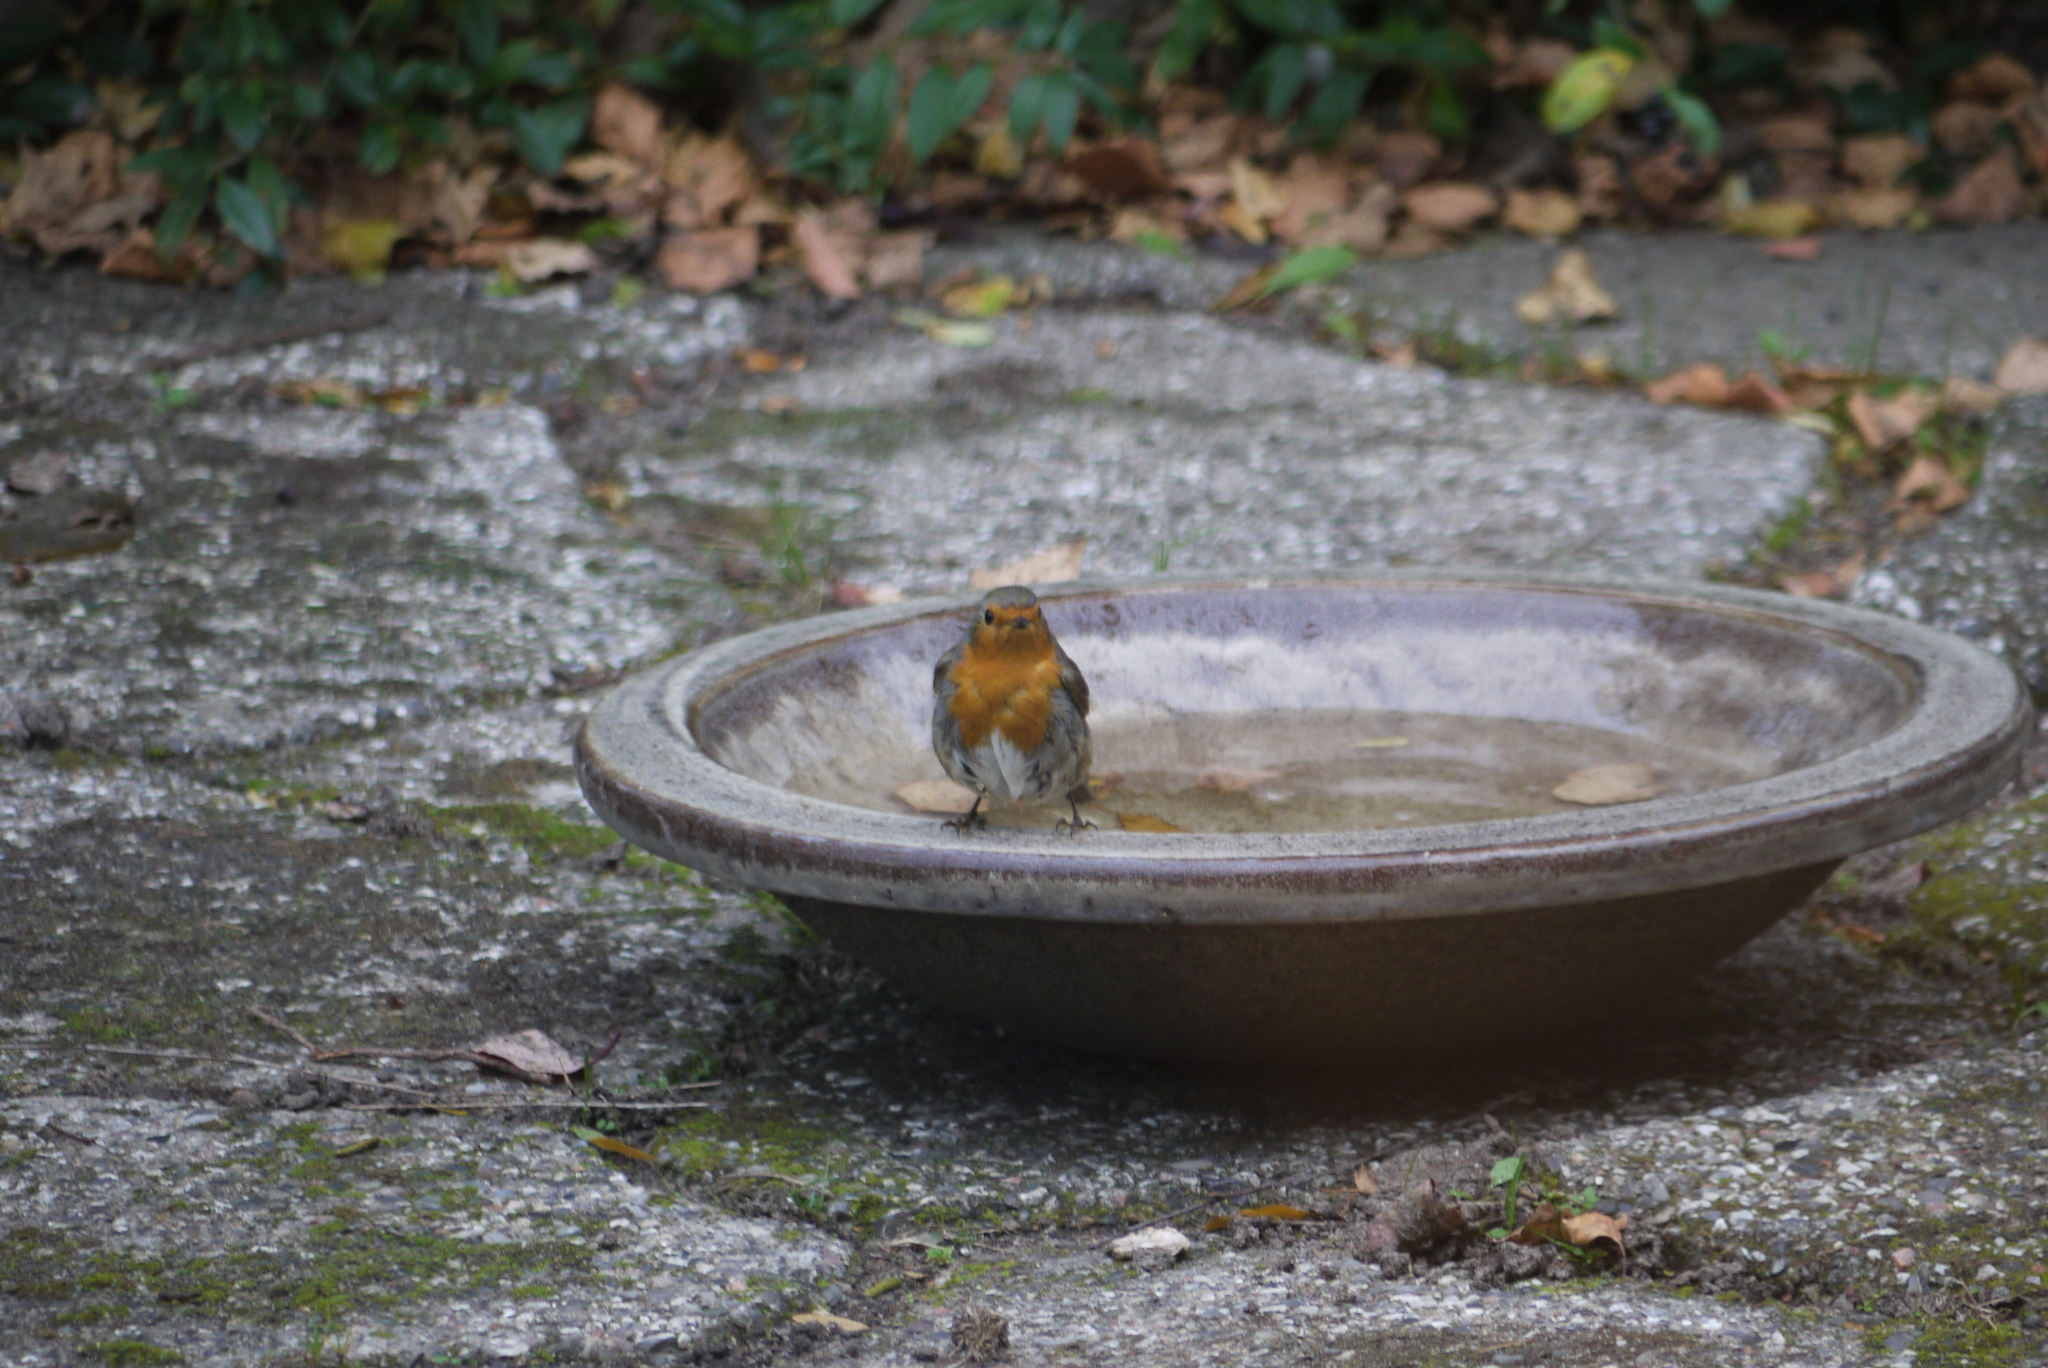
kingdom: Animalia
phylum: Chordata
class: Aves
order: Passeriformes
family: Muscicapidae
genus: Erithacus
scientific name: Erithacus rubecula
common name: European robin
